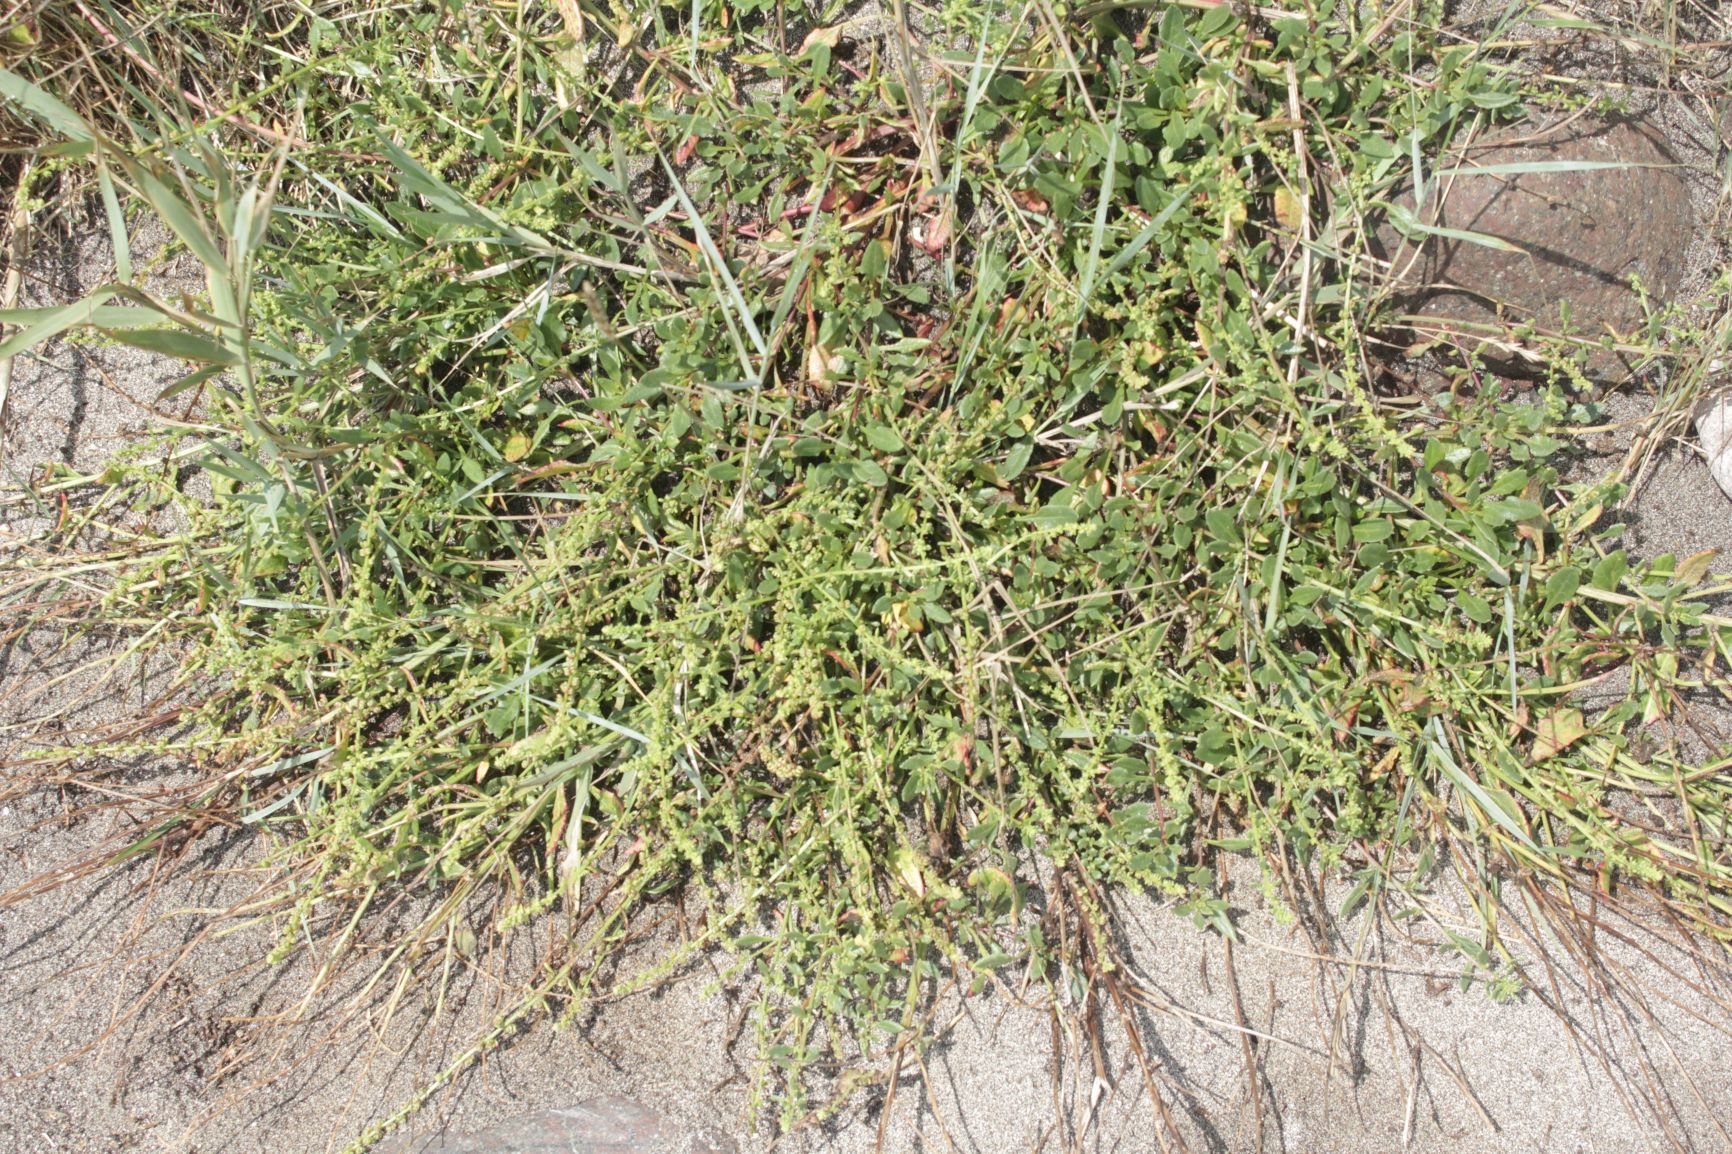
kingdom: Plantae
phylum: Tracheophyta
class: Magnoliopsida
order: Caryophyllales
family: Amaranthaceae
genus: Beta
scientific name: Beta vulgaris
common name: Beet
